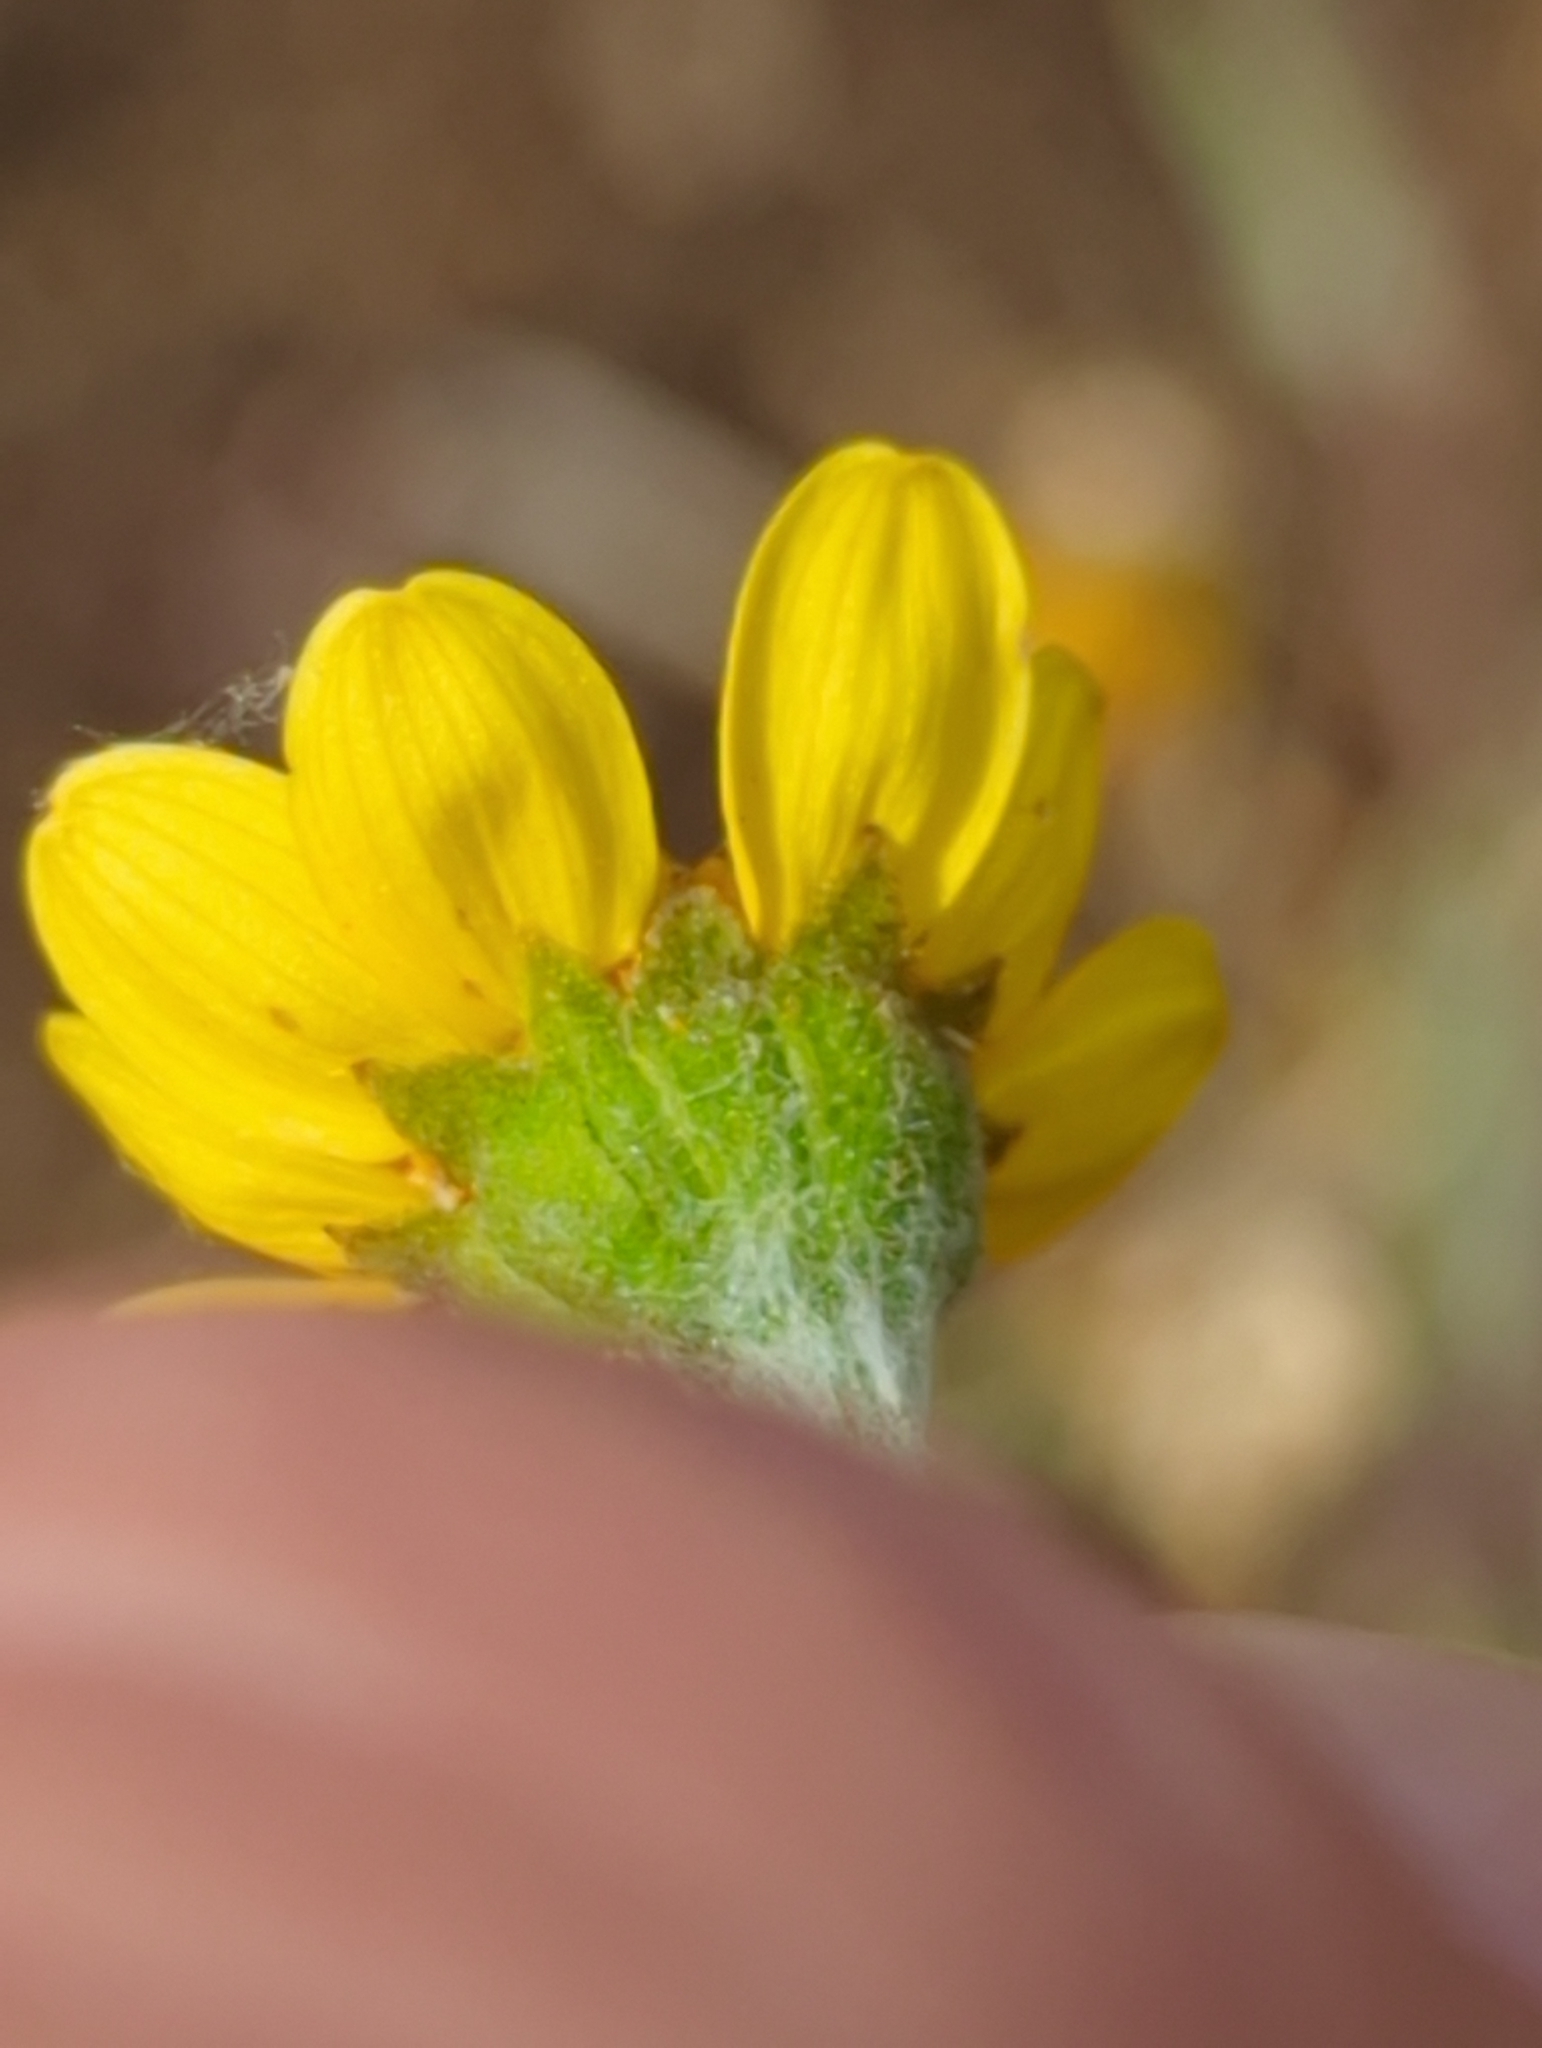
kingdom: Plantae
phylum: Tracheophyta
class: Magnoliopsida
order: Asterales
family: Asteraceae
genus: Monolopia
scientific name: Monolopia gracilens
